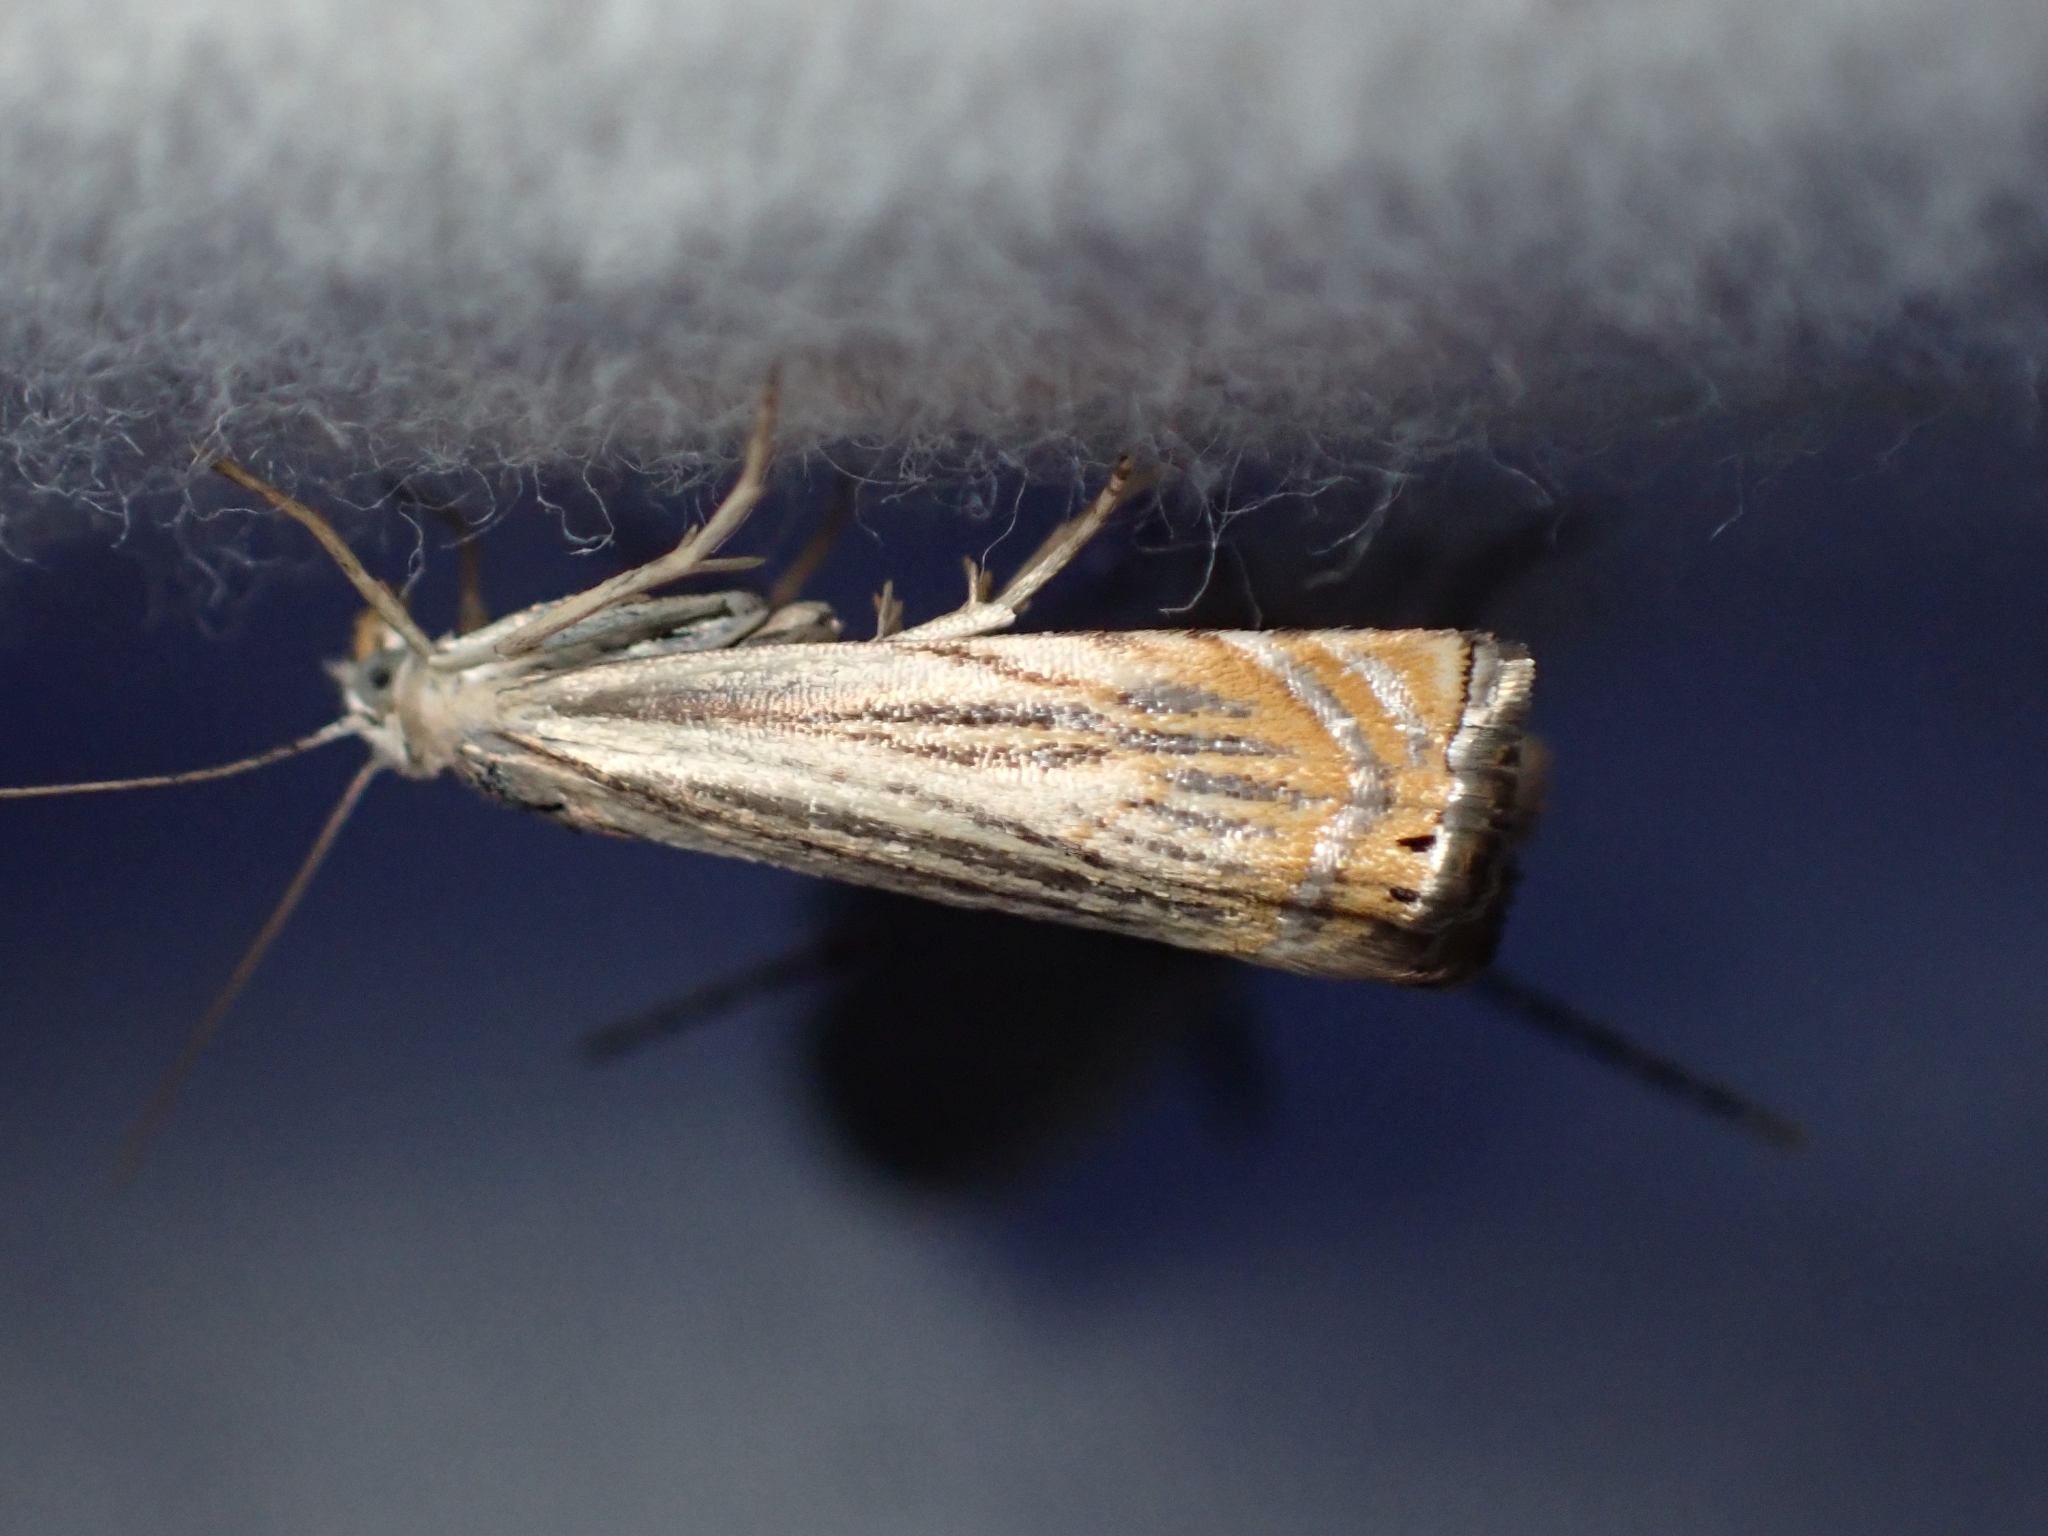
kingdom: Animalia
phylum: Arthropoda
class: Insecta
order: Lepidoptera
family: Crambidae
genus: Chrysoteuchia
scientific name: Chrysoteuchia topiarius
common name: Topiary grass-veneer
